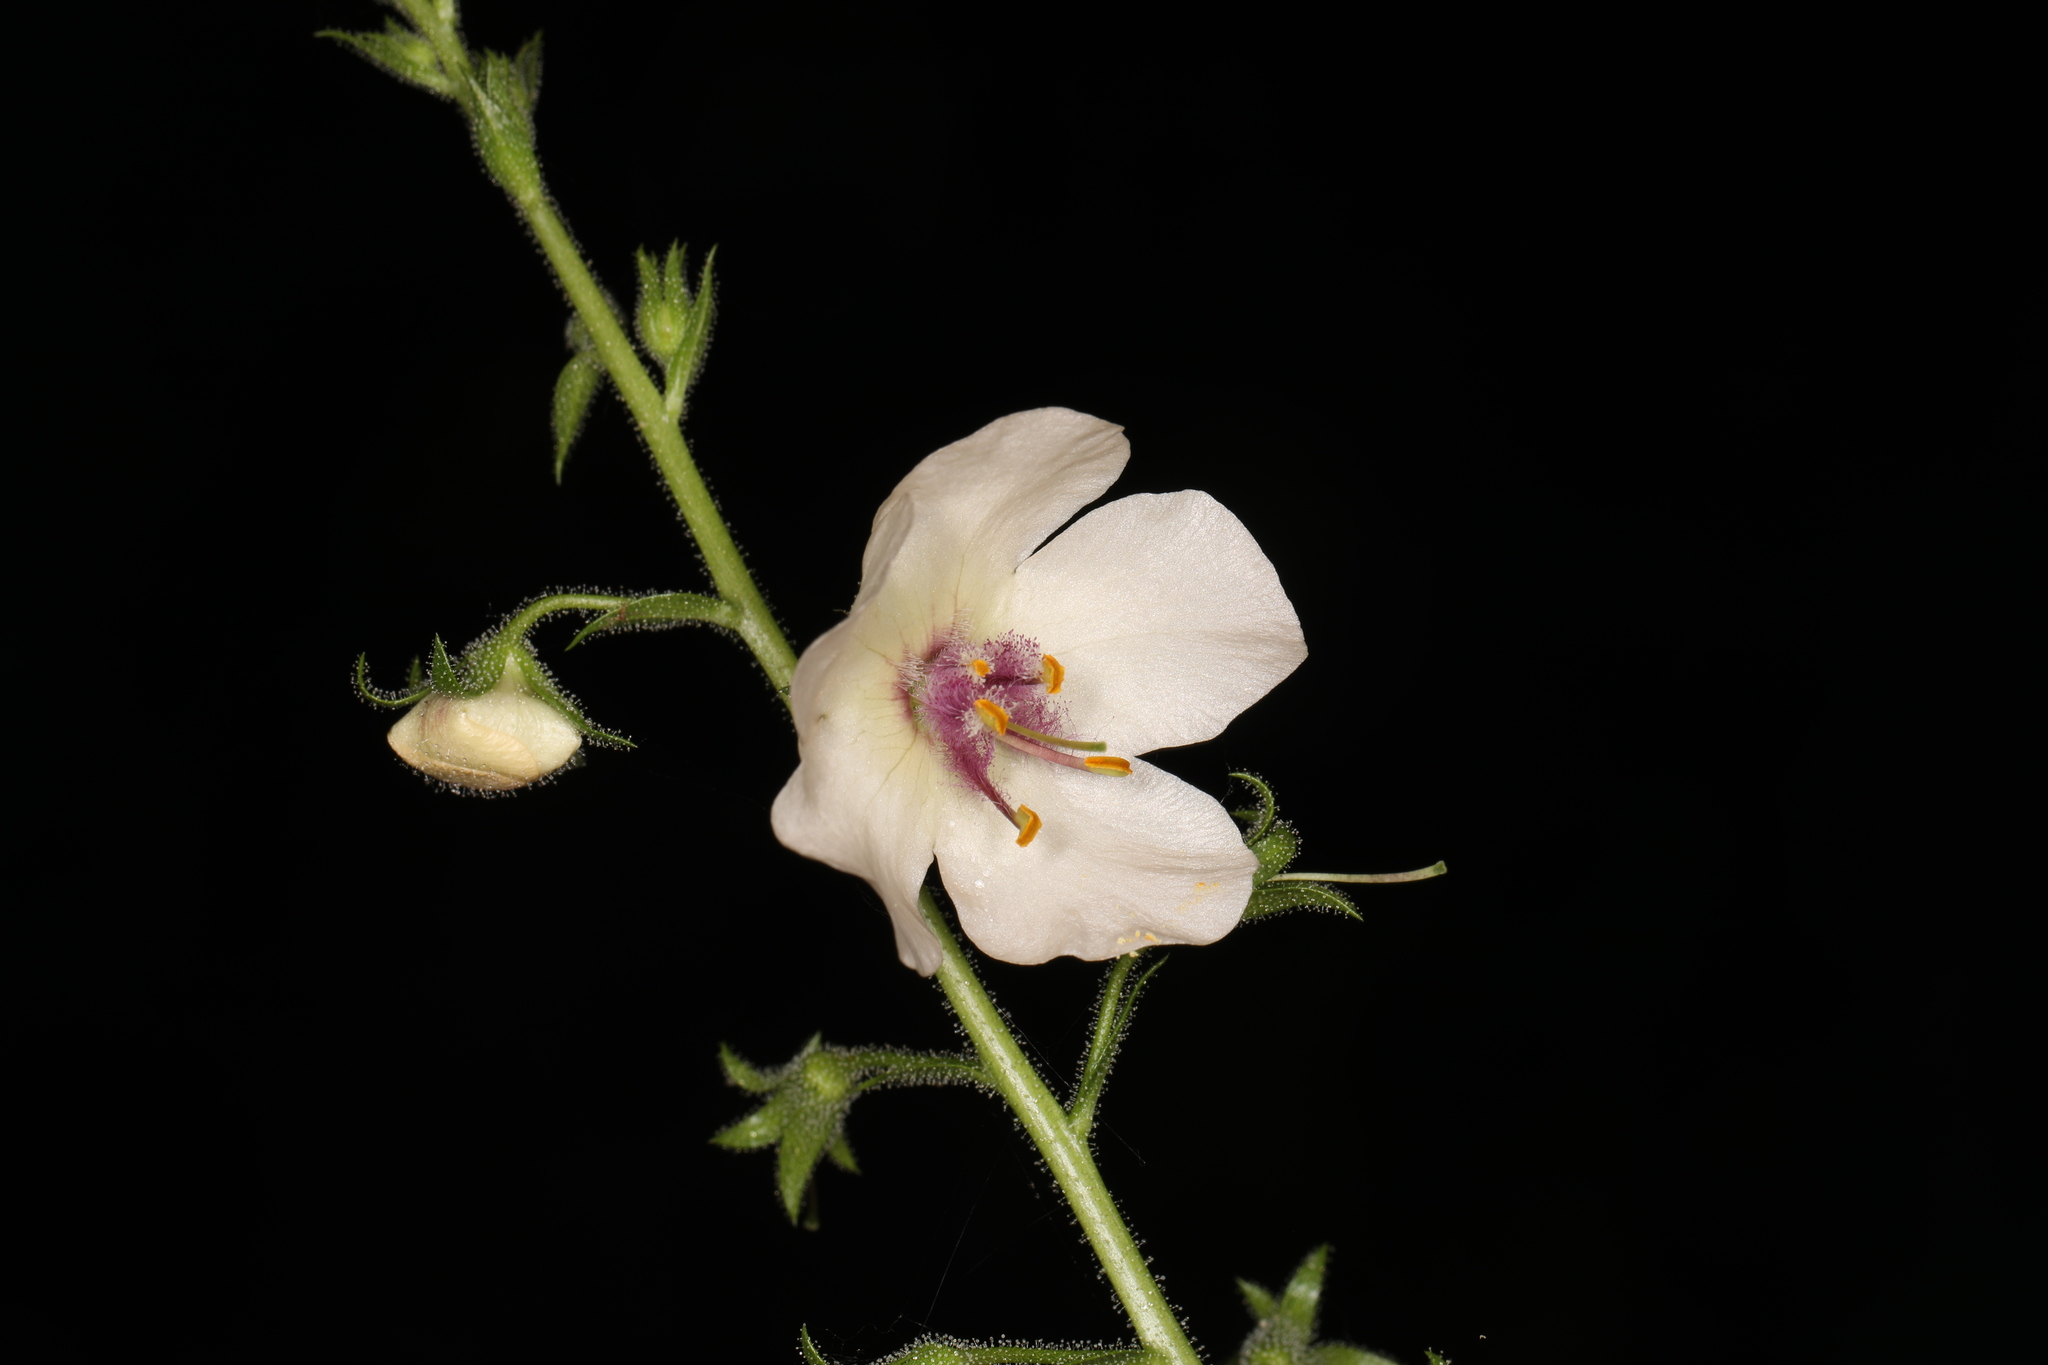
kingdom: Plantae
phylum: Tracheophyta
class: Magnoliopsida
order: Lamiales
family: Scrophulariaceae
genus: Verbascum
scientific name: Verbascum blattaria
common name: Moth mullein
